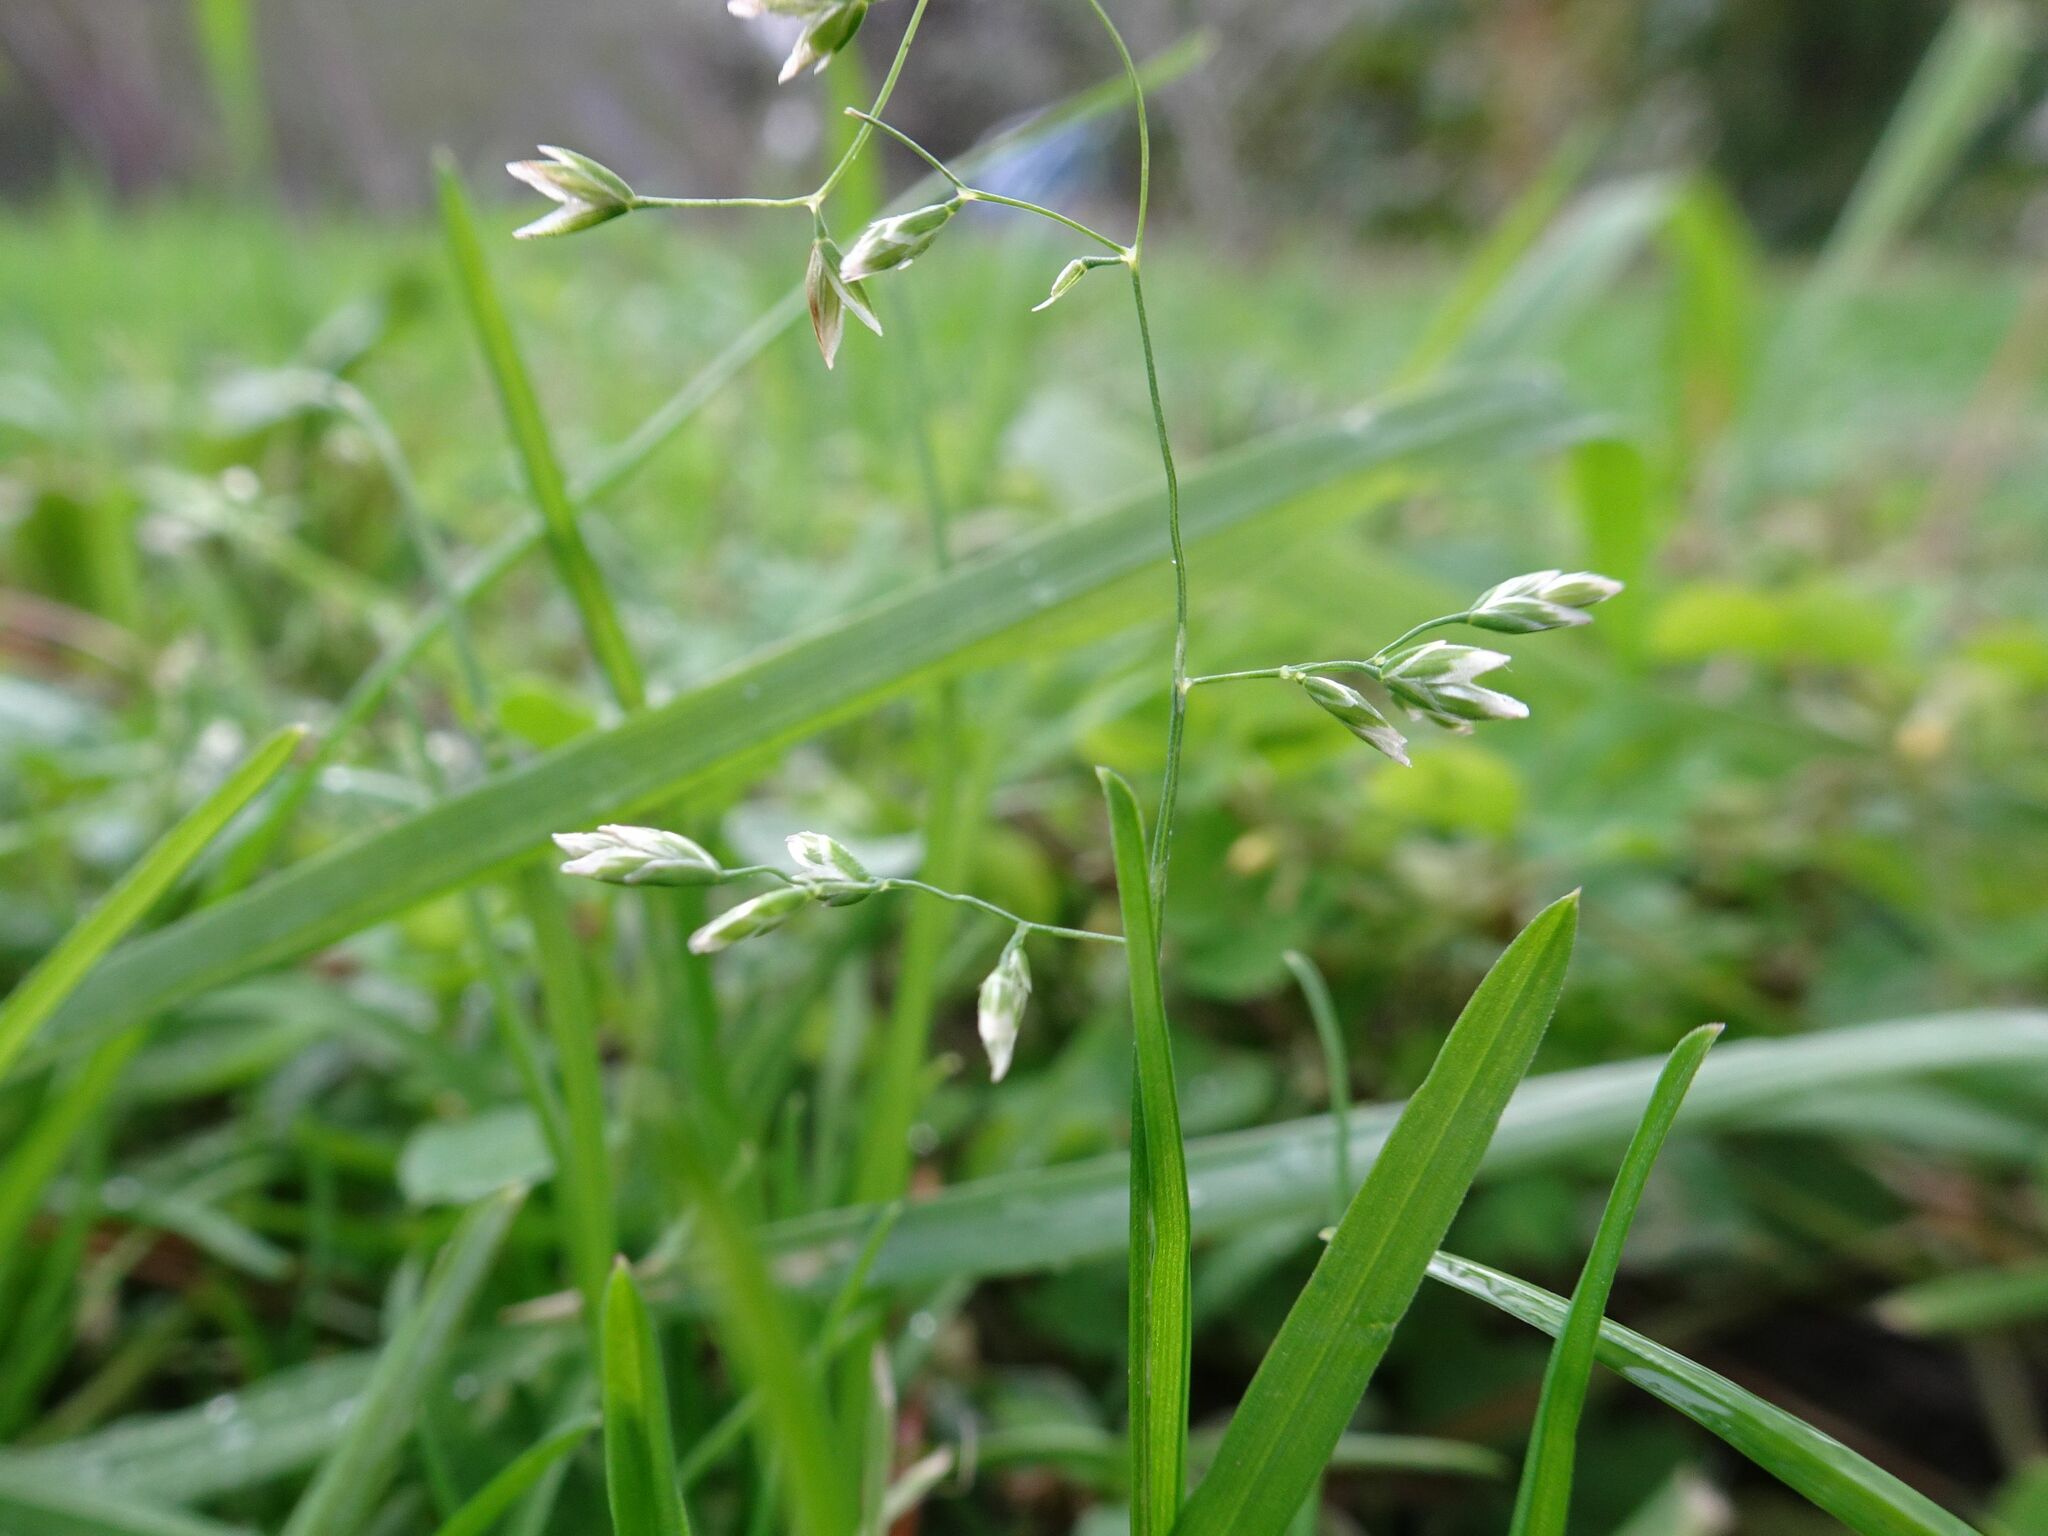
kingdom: Plantae
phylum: Tracheophyta
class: Liliopsida
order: Poales
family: Poaceae
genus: Poa
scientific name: Poa annua
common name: Annual bluegrass
